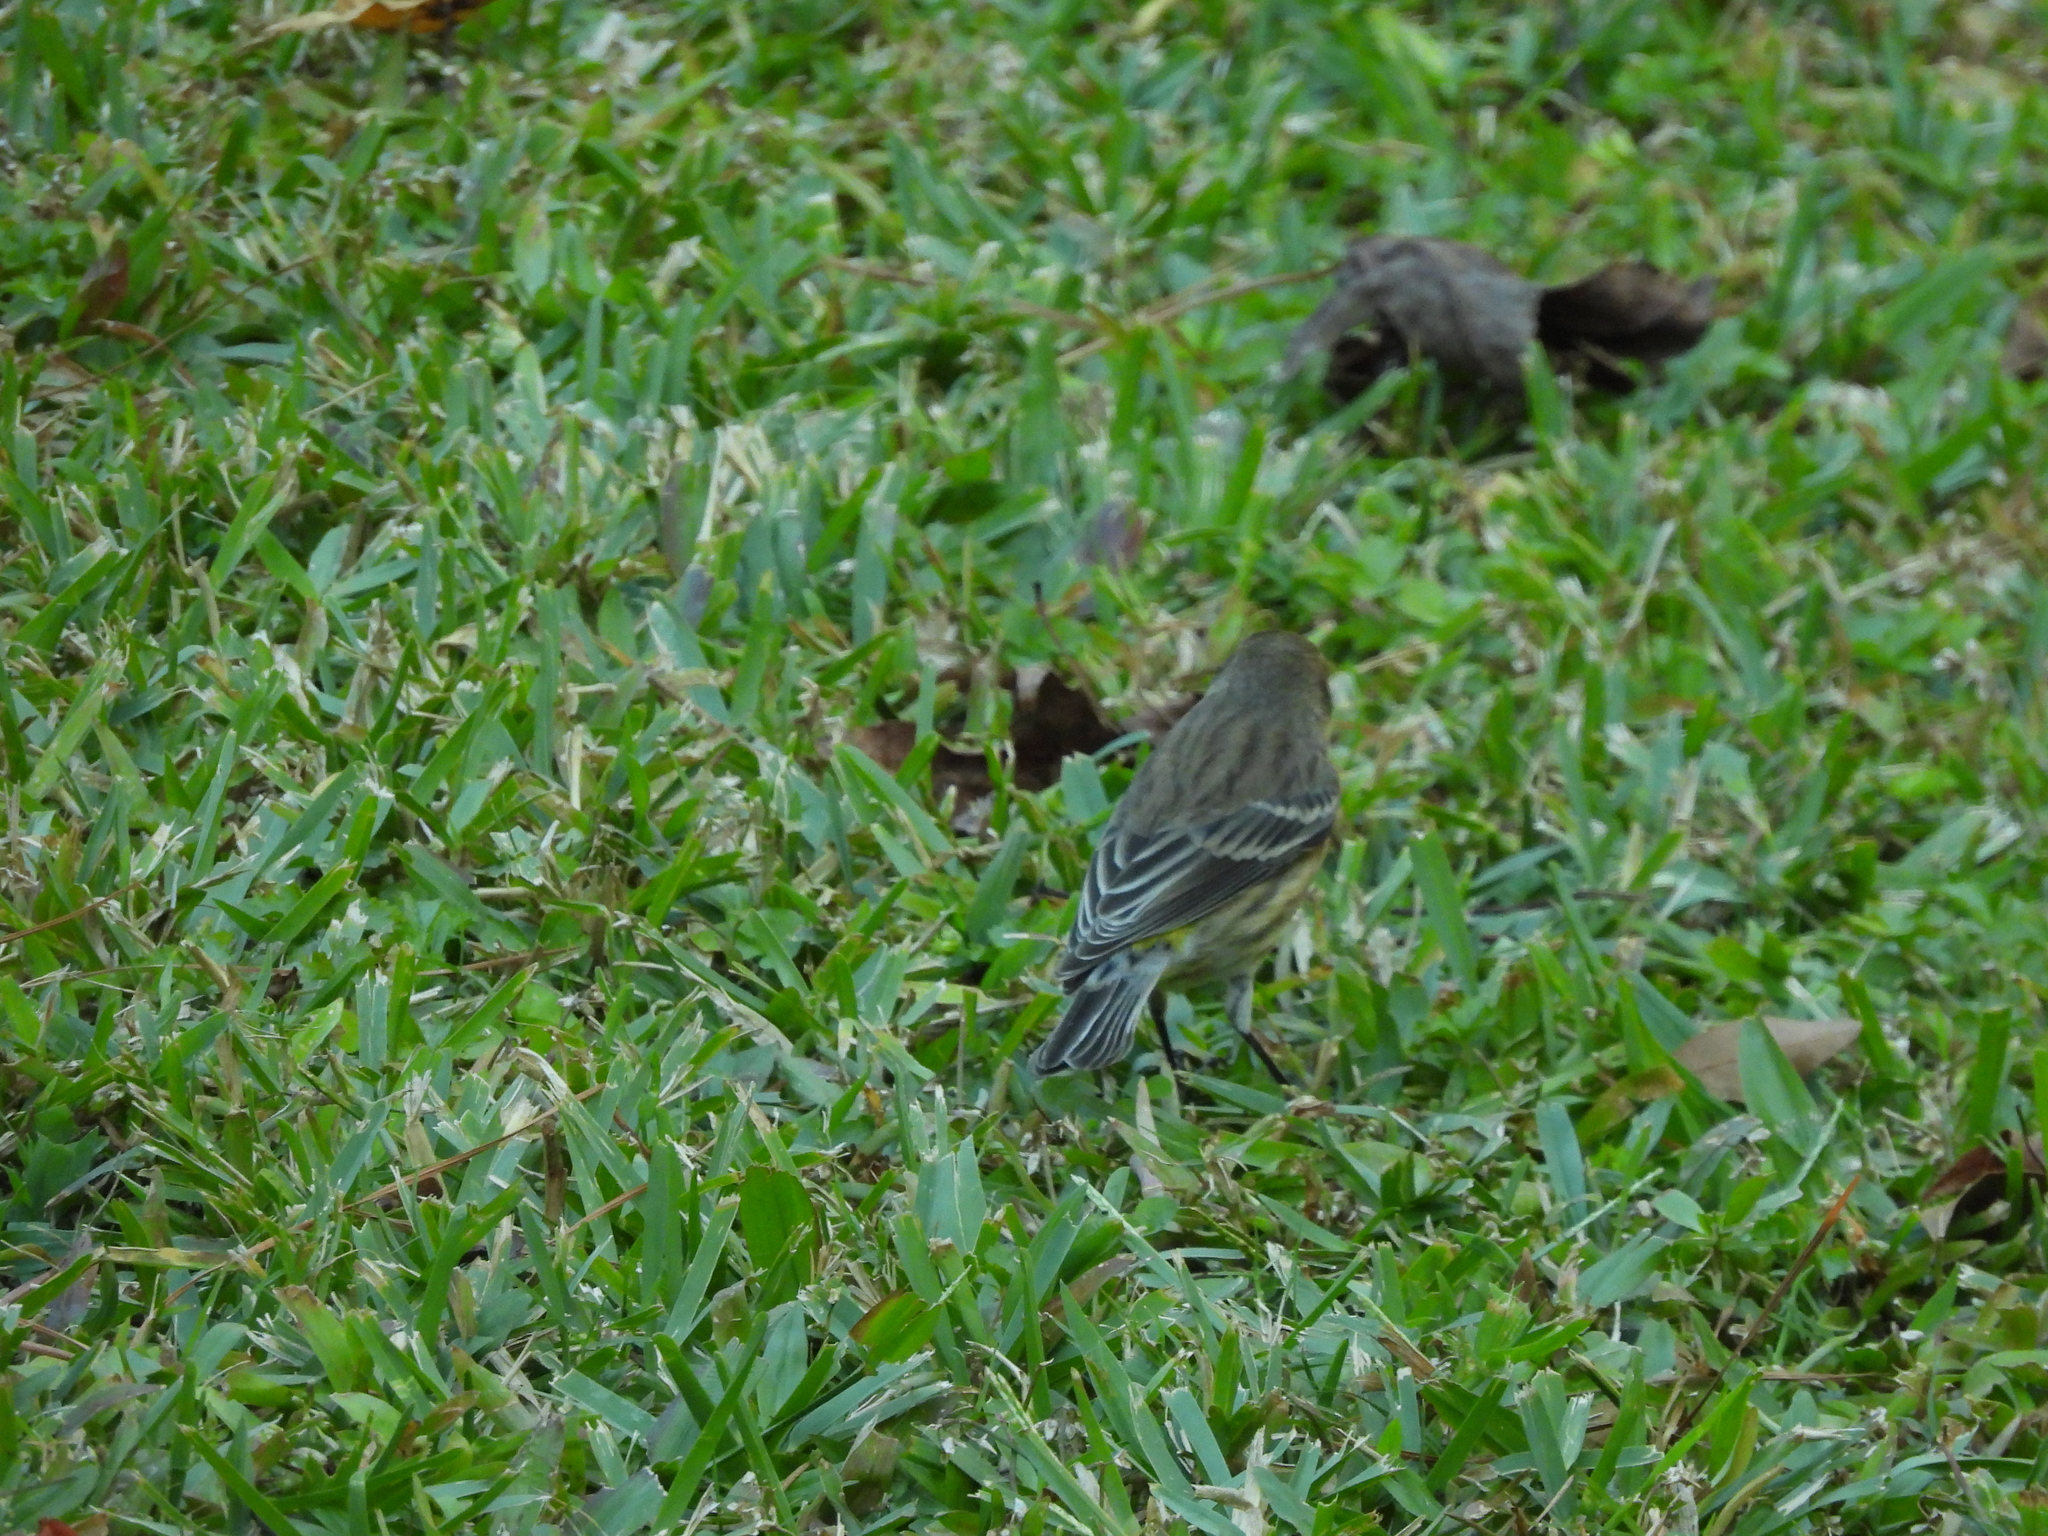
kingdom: Animalia
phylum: Chordata
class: Aves
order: Passeriformes
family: Parulidae
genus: Setophaga
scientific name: Setophaga coronata
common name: Myrtle warbler
